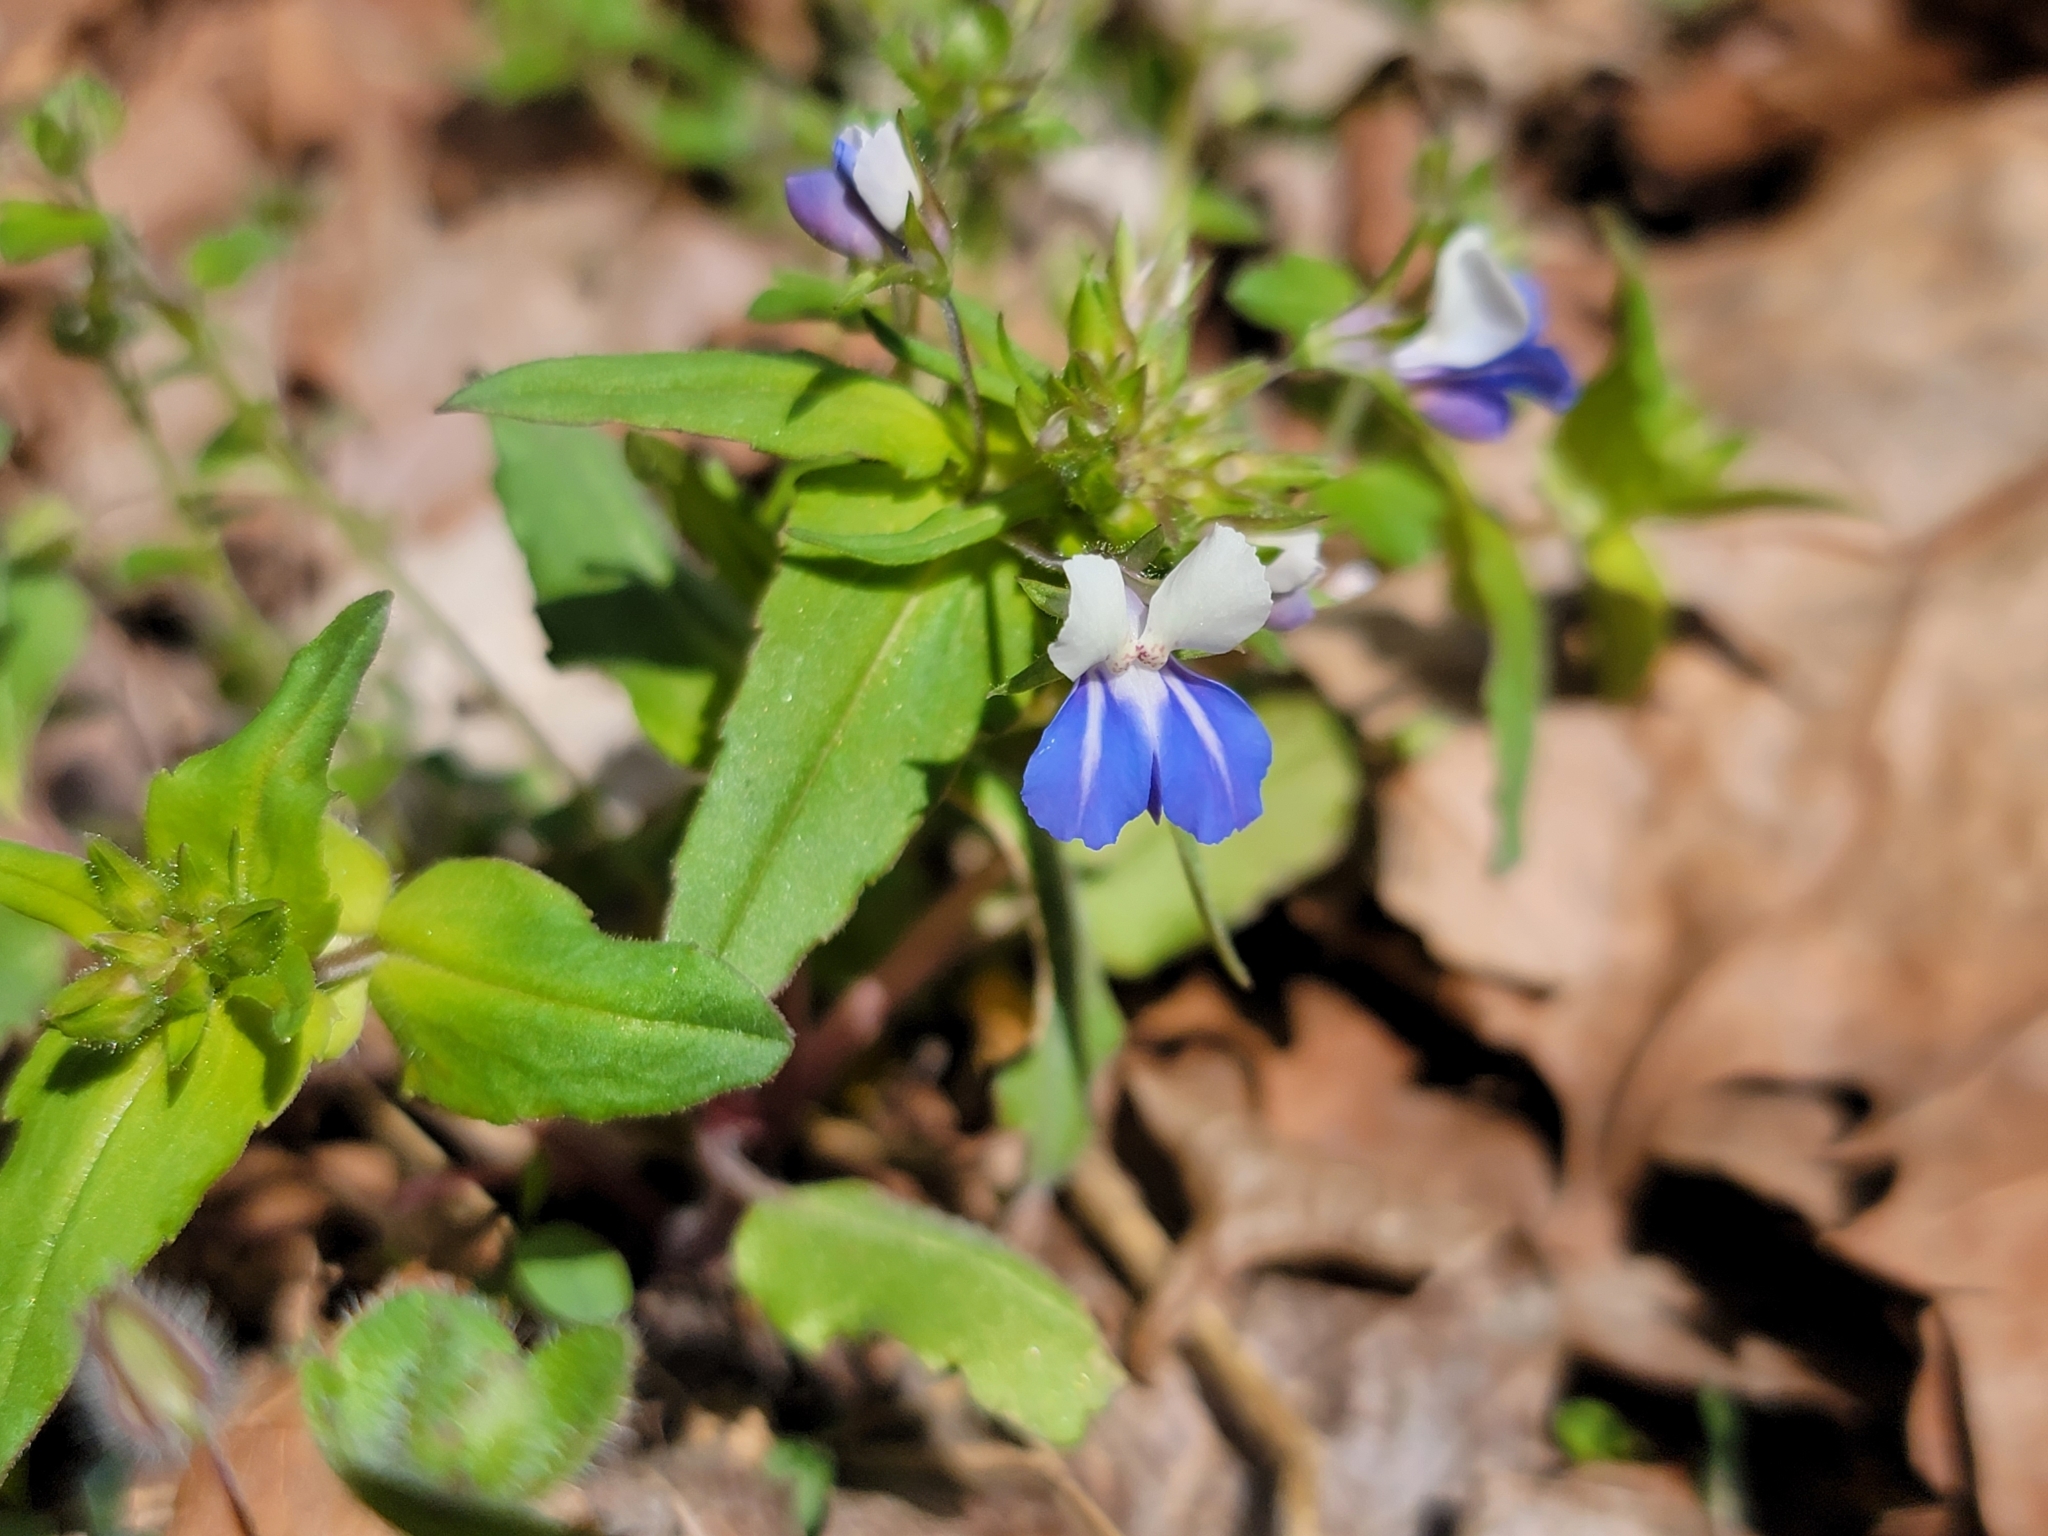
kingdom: Plantae
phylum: Tracheophyta
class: Magnoliopsida
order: Lamiales
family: Plantaginaceae
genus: Collinsia
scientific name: Collinsia verna
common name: Broad-leaved collinsia
